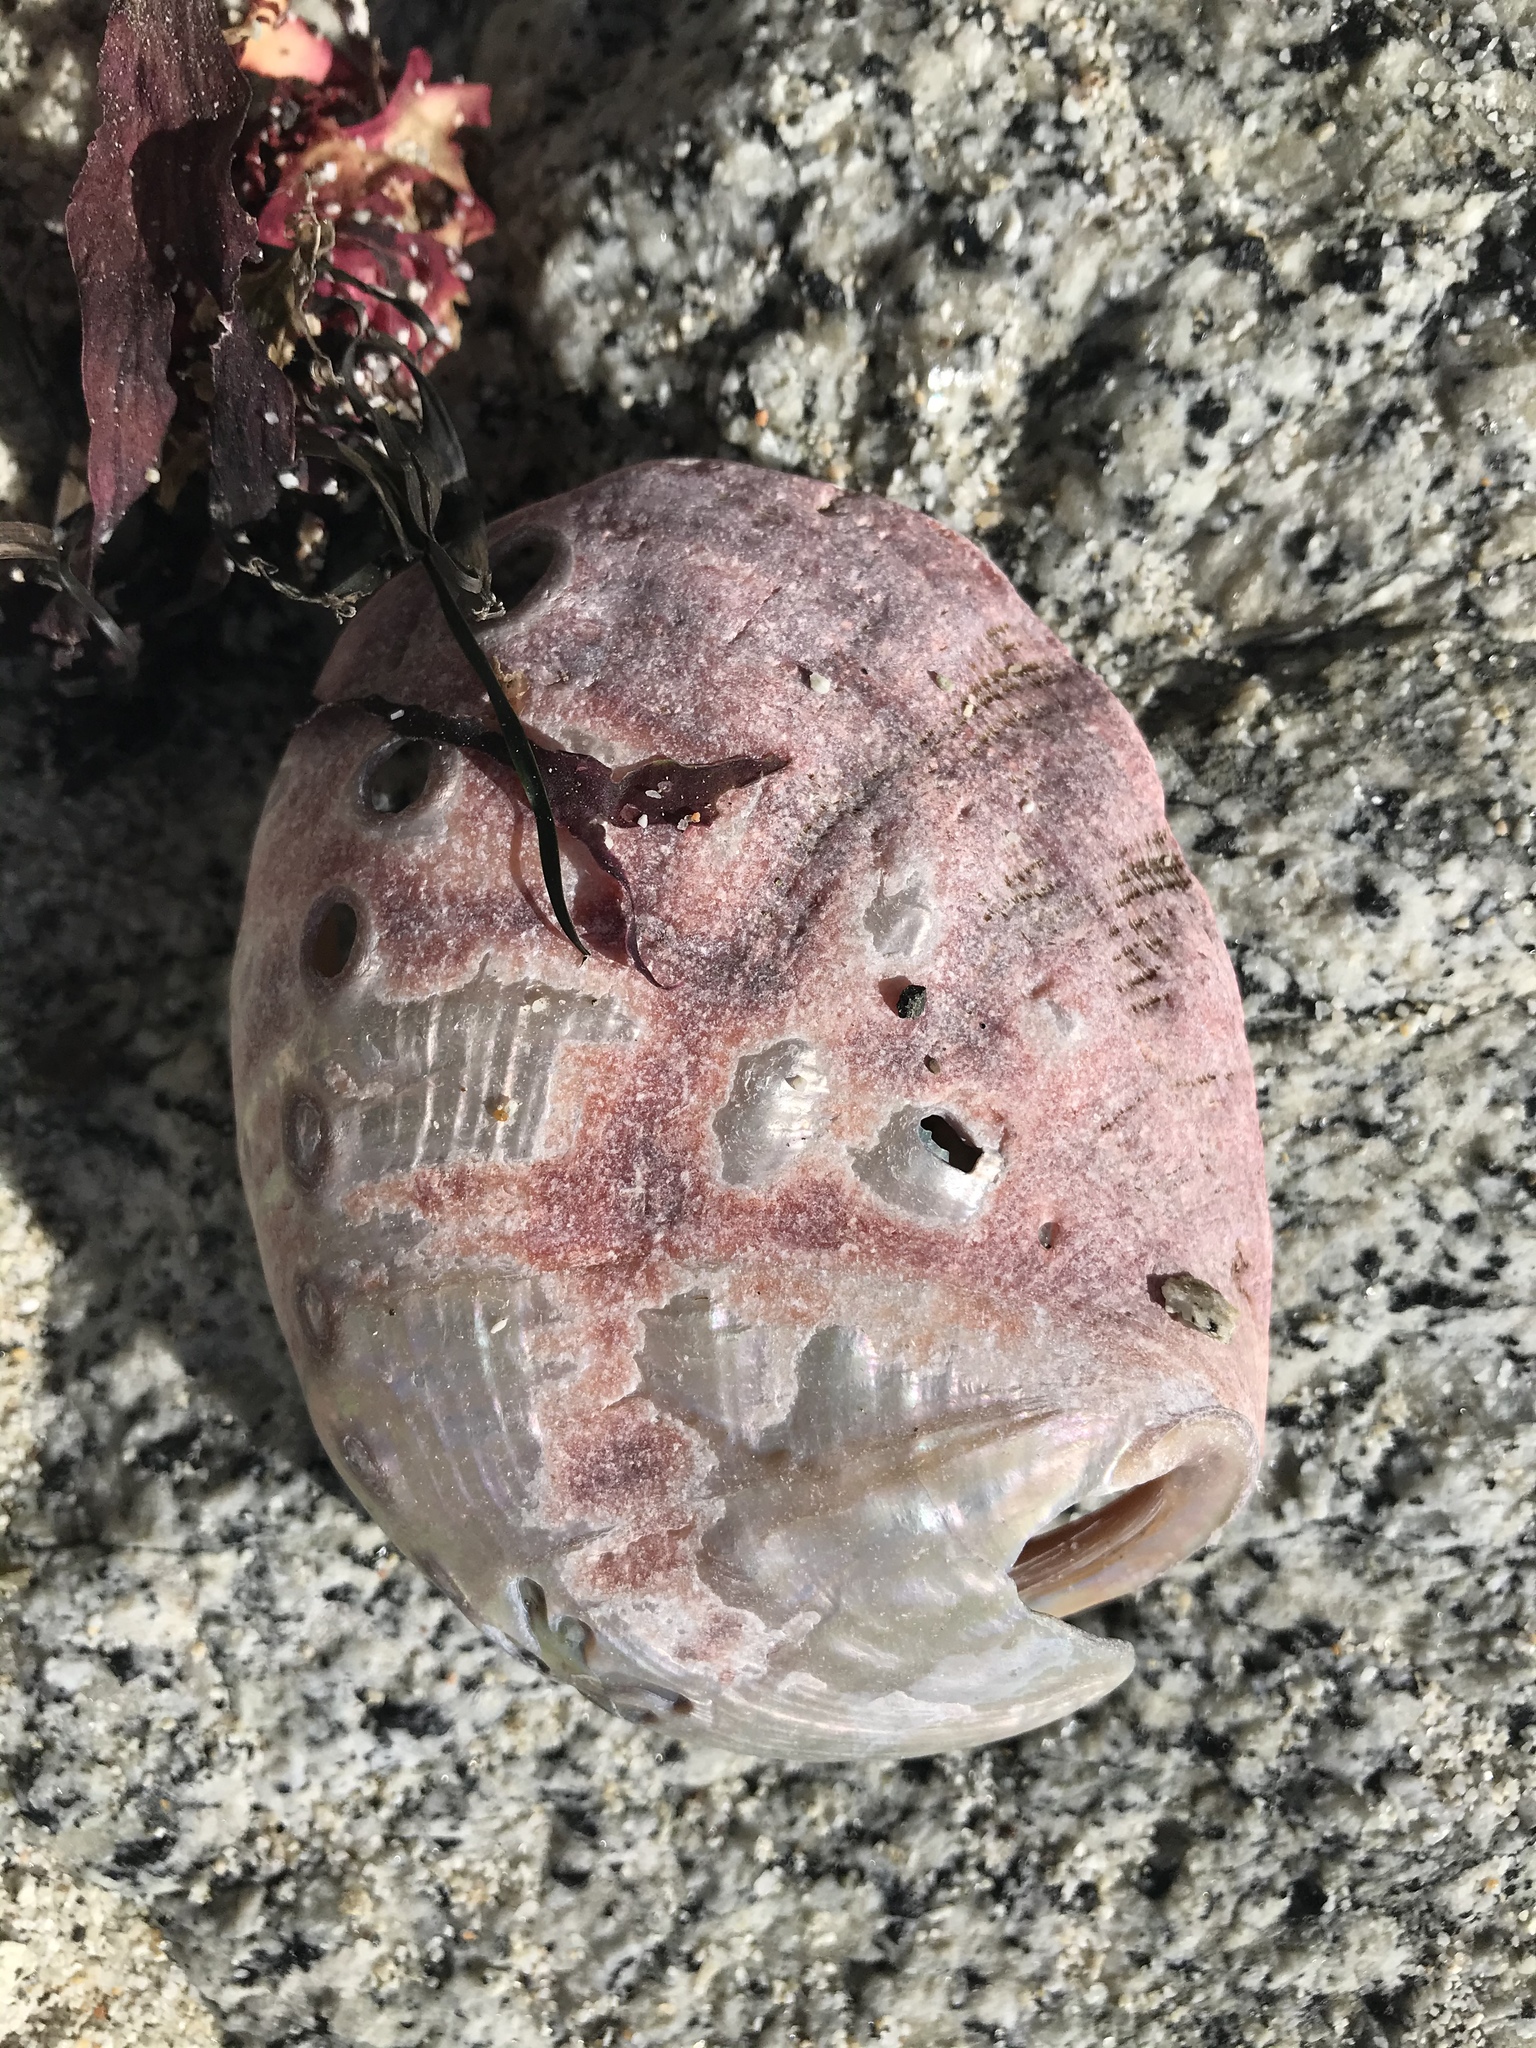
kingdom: Animalia
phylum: Mollusca
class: Gastropoda
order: Lepetellida
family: Haliotidae
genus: Haliotis
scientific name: Haliotis rufescens
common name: Red abalone
